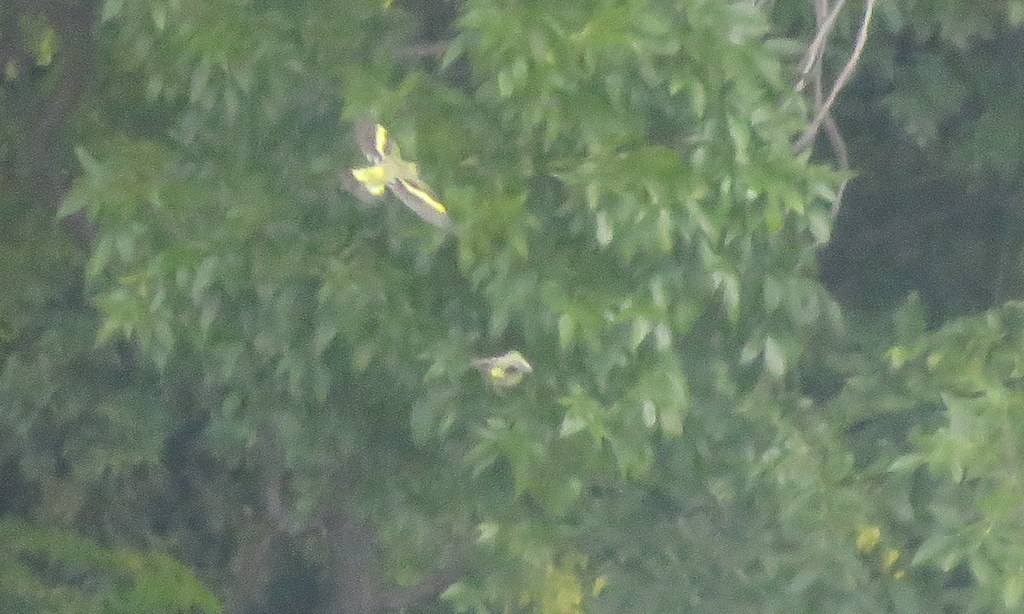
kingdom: Animalia
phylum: Chordata
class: Aves
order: Passeriformes
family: Fringillidae
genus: Spinus
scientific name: Spinus magellanicus
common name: Hooded siskin
